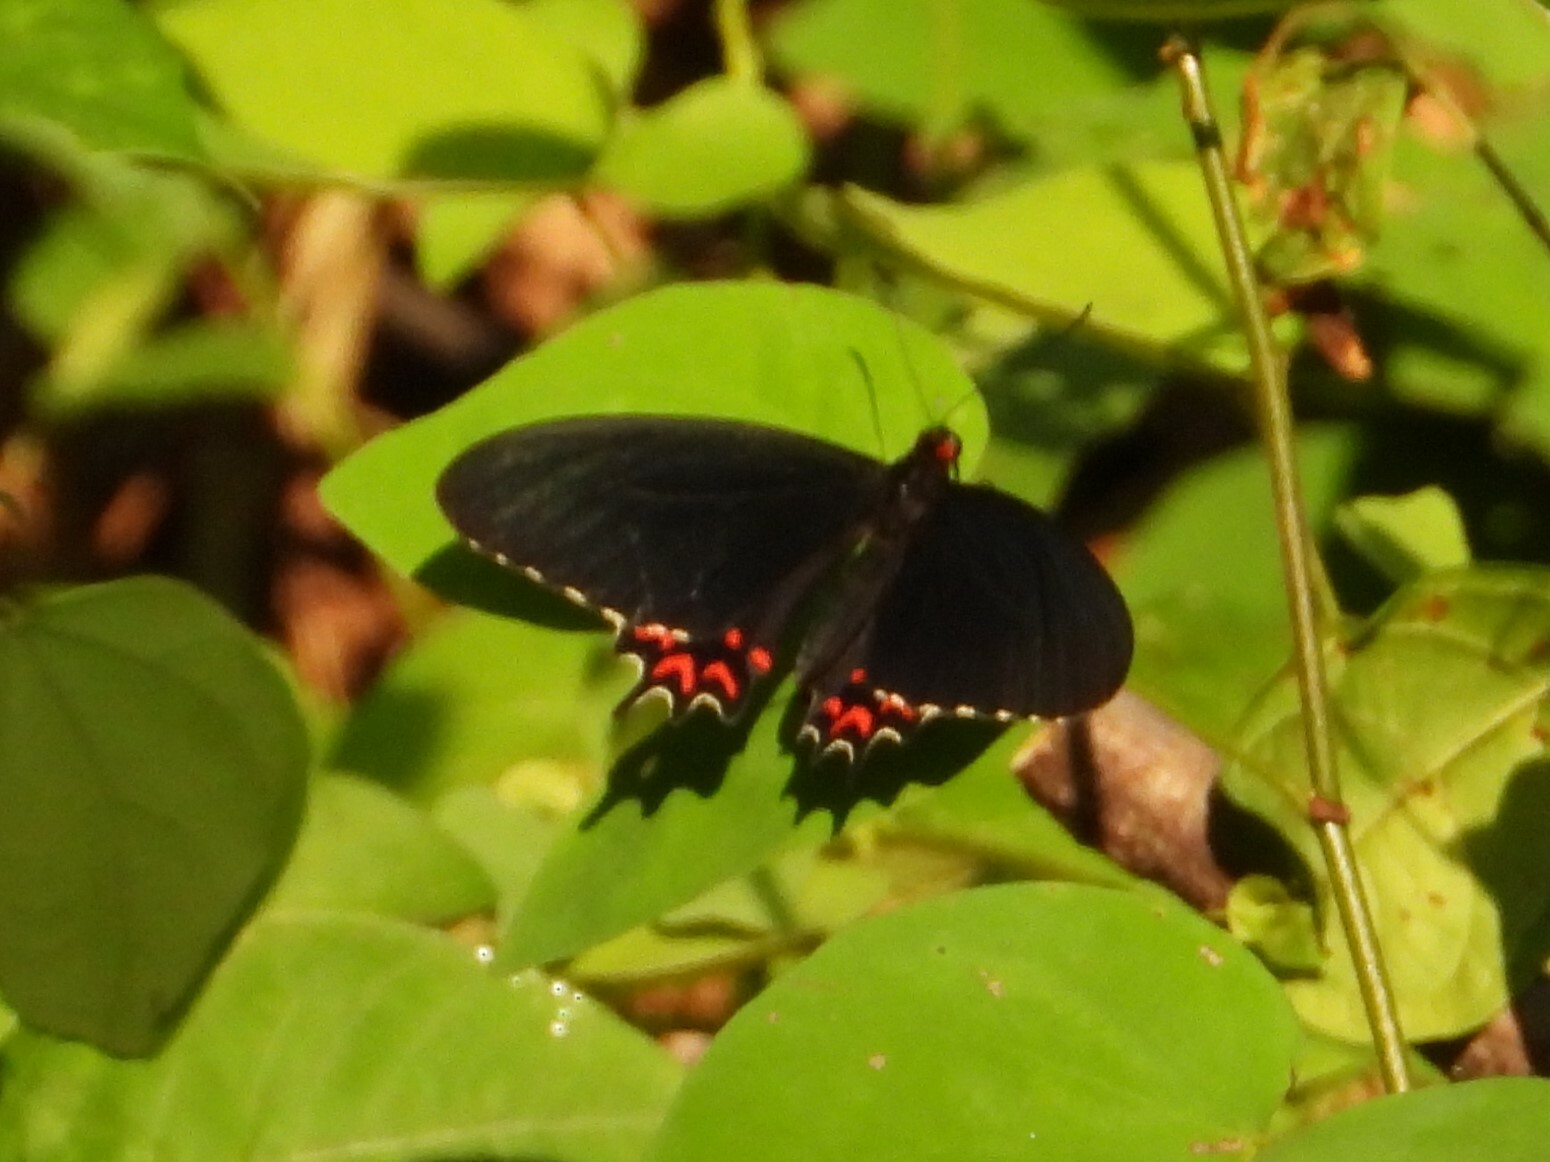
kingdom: Animalia
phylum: Arthropoda
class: Insecta
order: Lepidoptera
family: Papilionidae
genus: Parides
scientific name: Parides photinus
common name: Pink-spotted cattleheart
